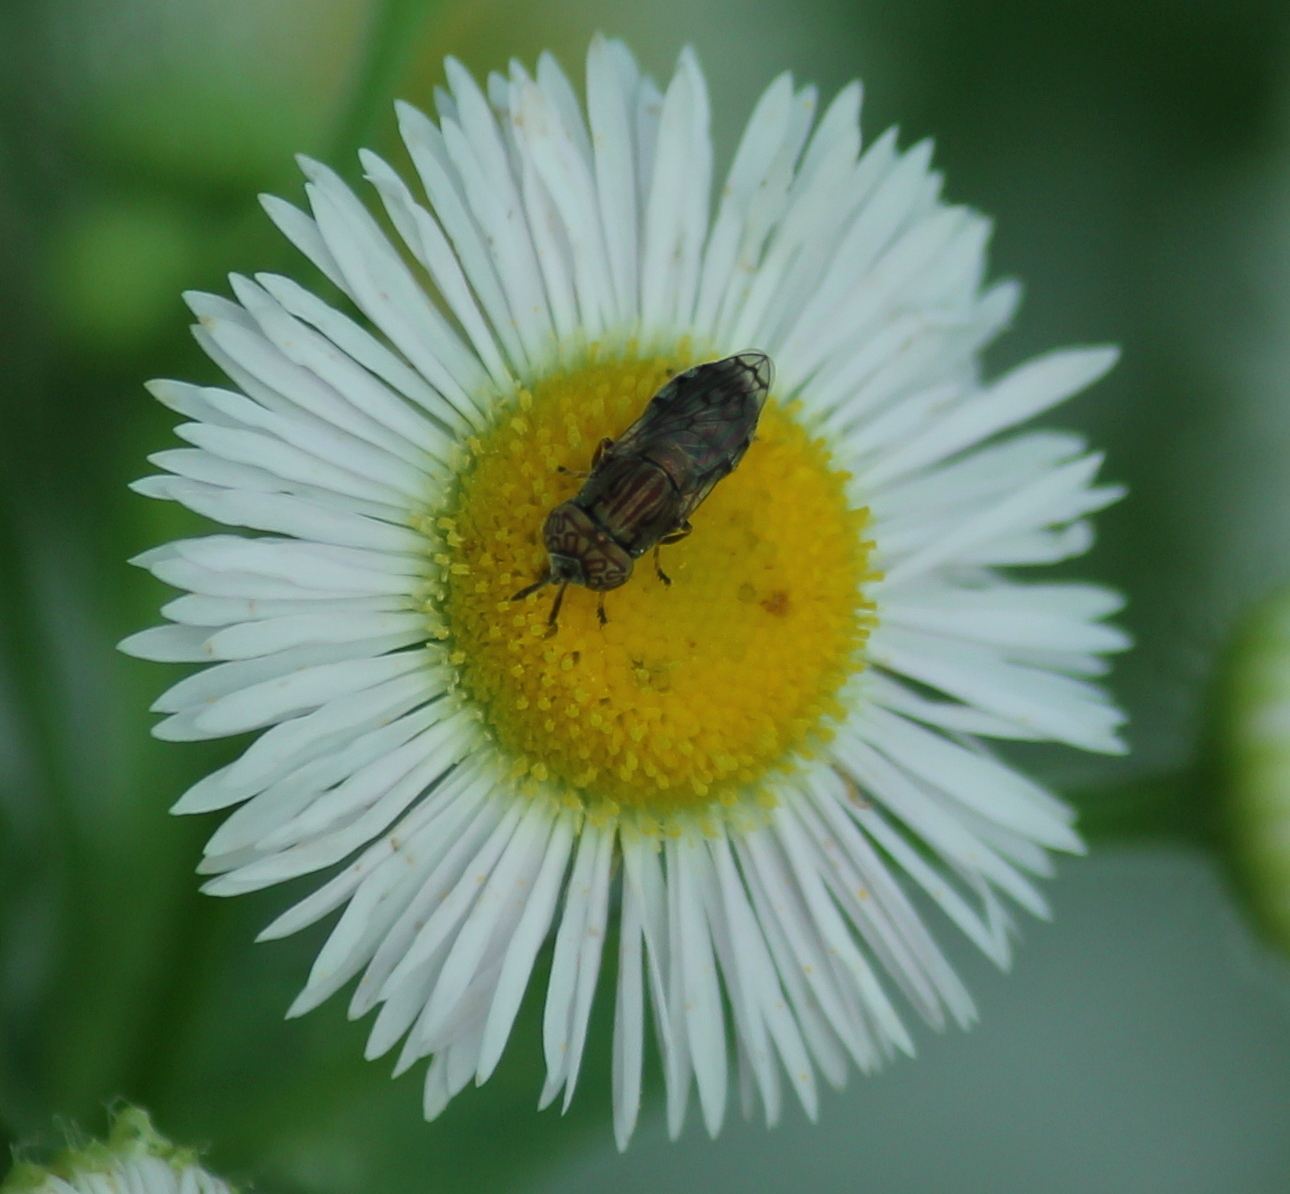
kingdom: Animalia
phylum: Arthropoda
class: Insecta
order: Diptera
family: Syrphidae
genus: Orthonevra
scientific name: Orthonevra nitida
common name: Wavy mucksucker
